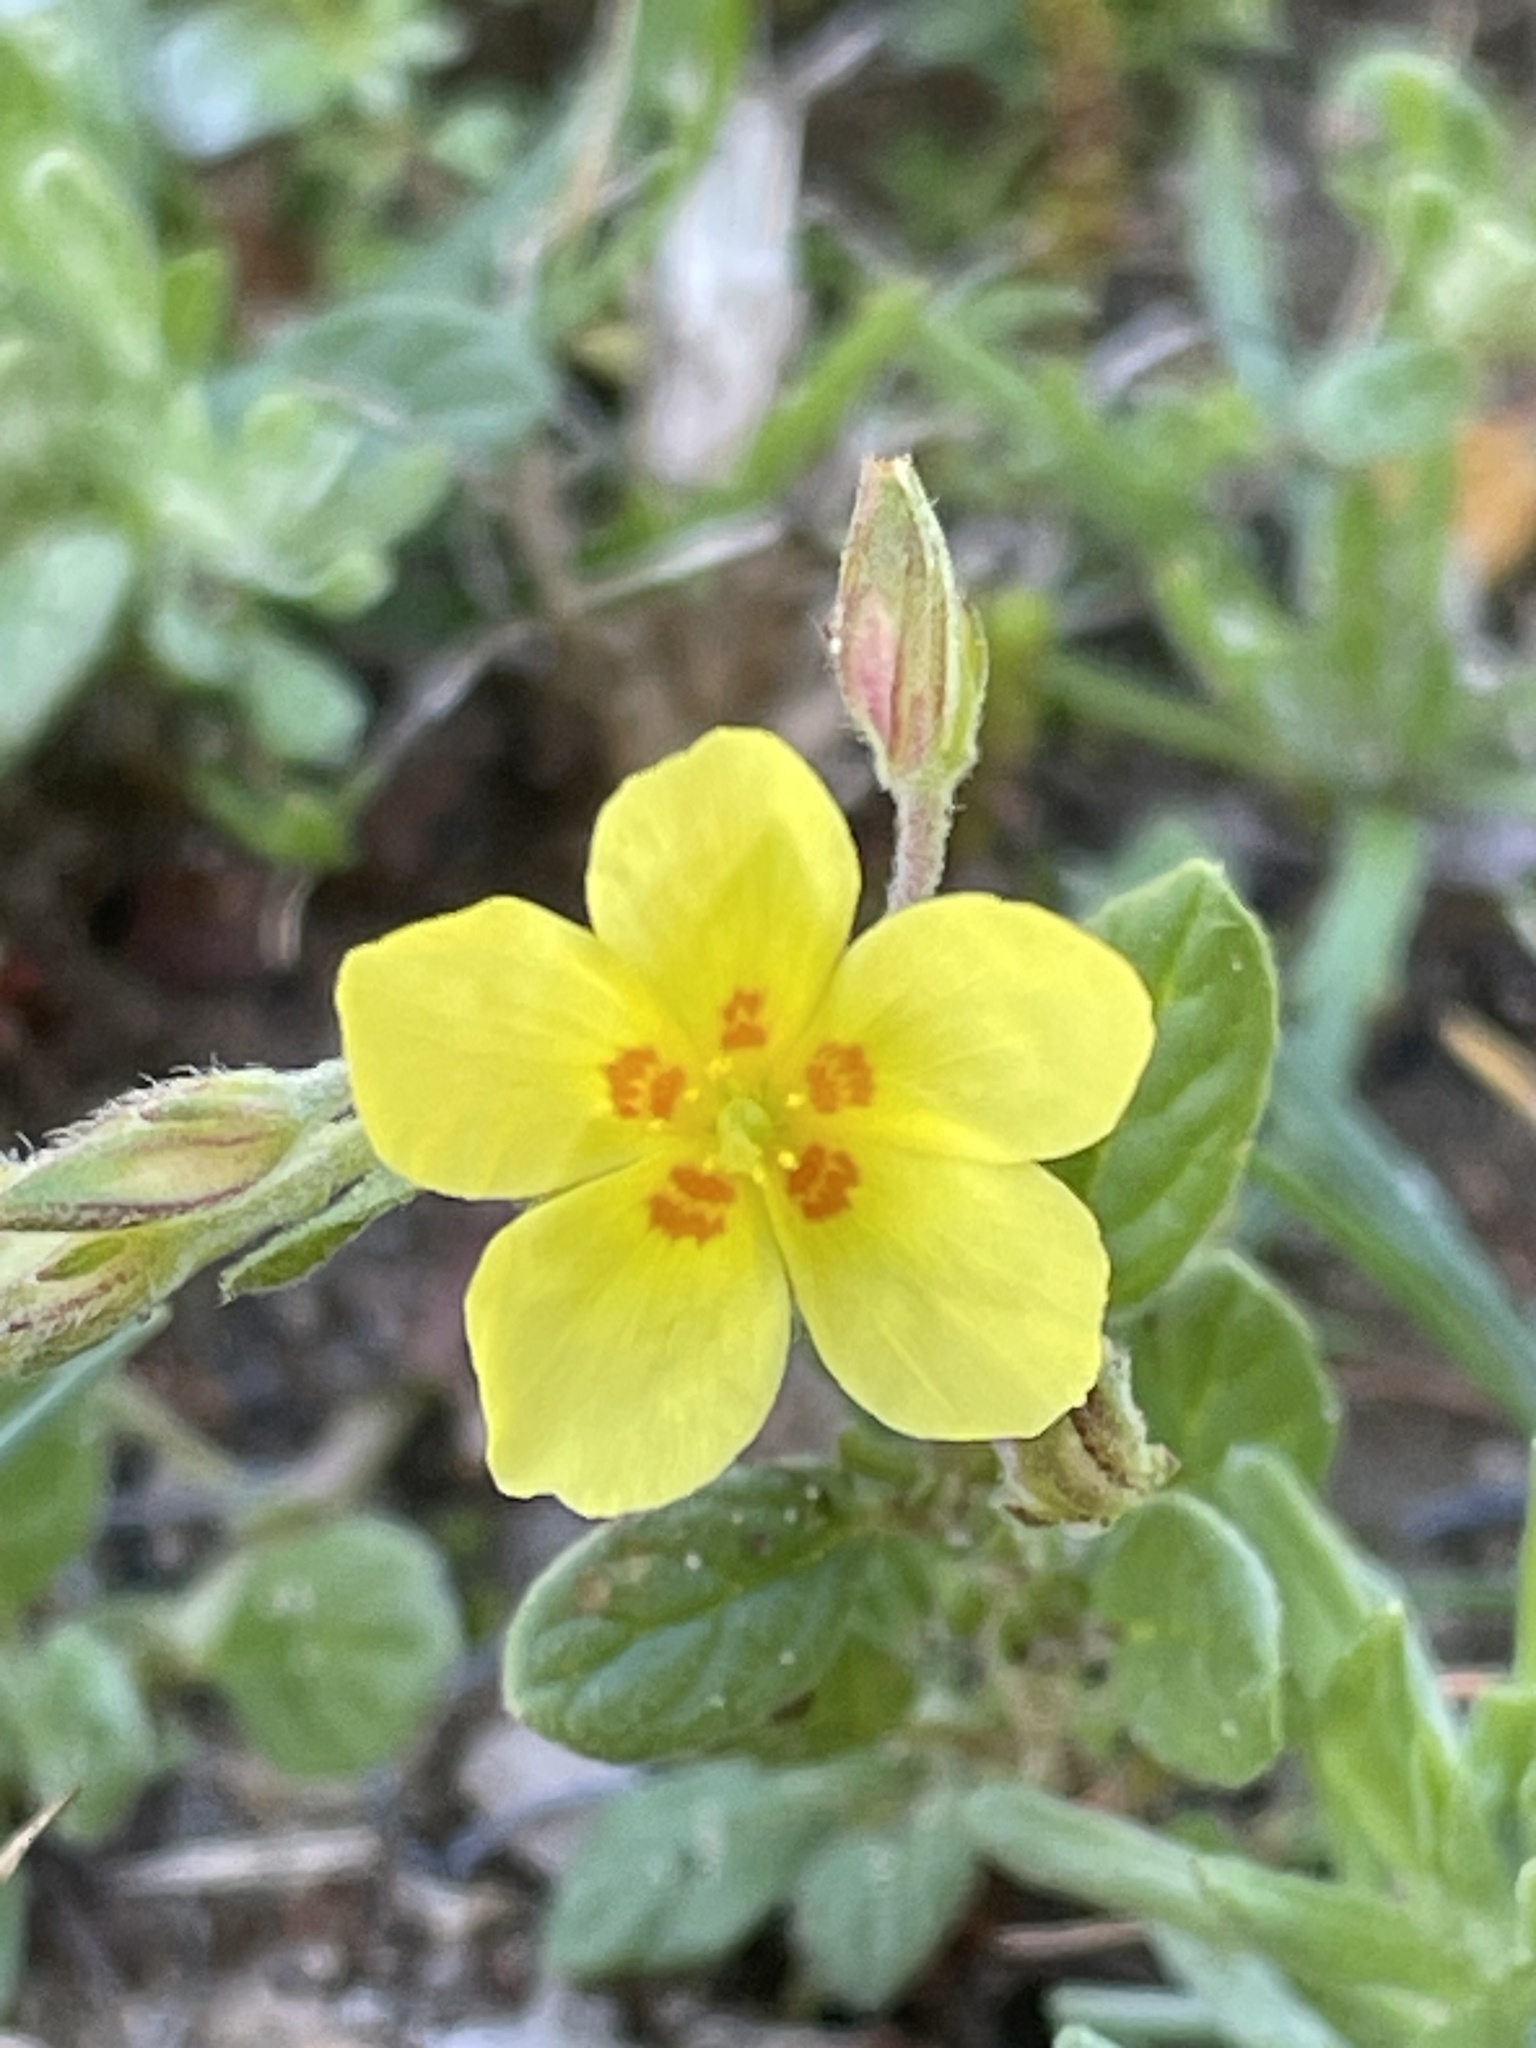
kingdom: Plantae
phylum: Tracheophyta
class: Magnoliopsida
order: Malvales
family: Cistaceae
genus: Helianthemum
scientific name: Helianthemum salicifolium
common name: Willowleaf frostweed
